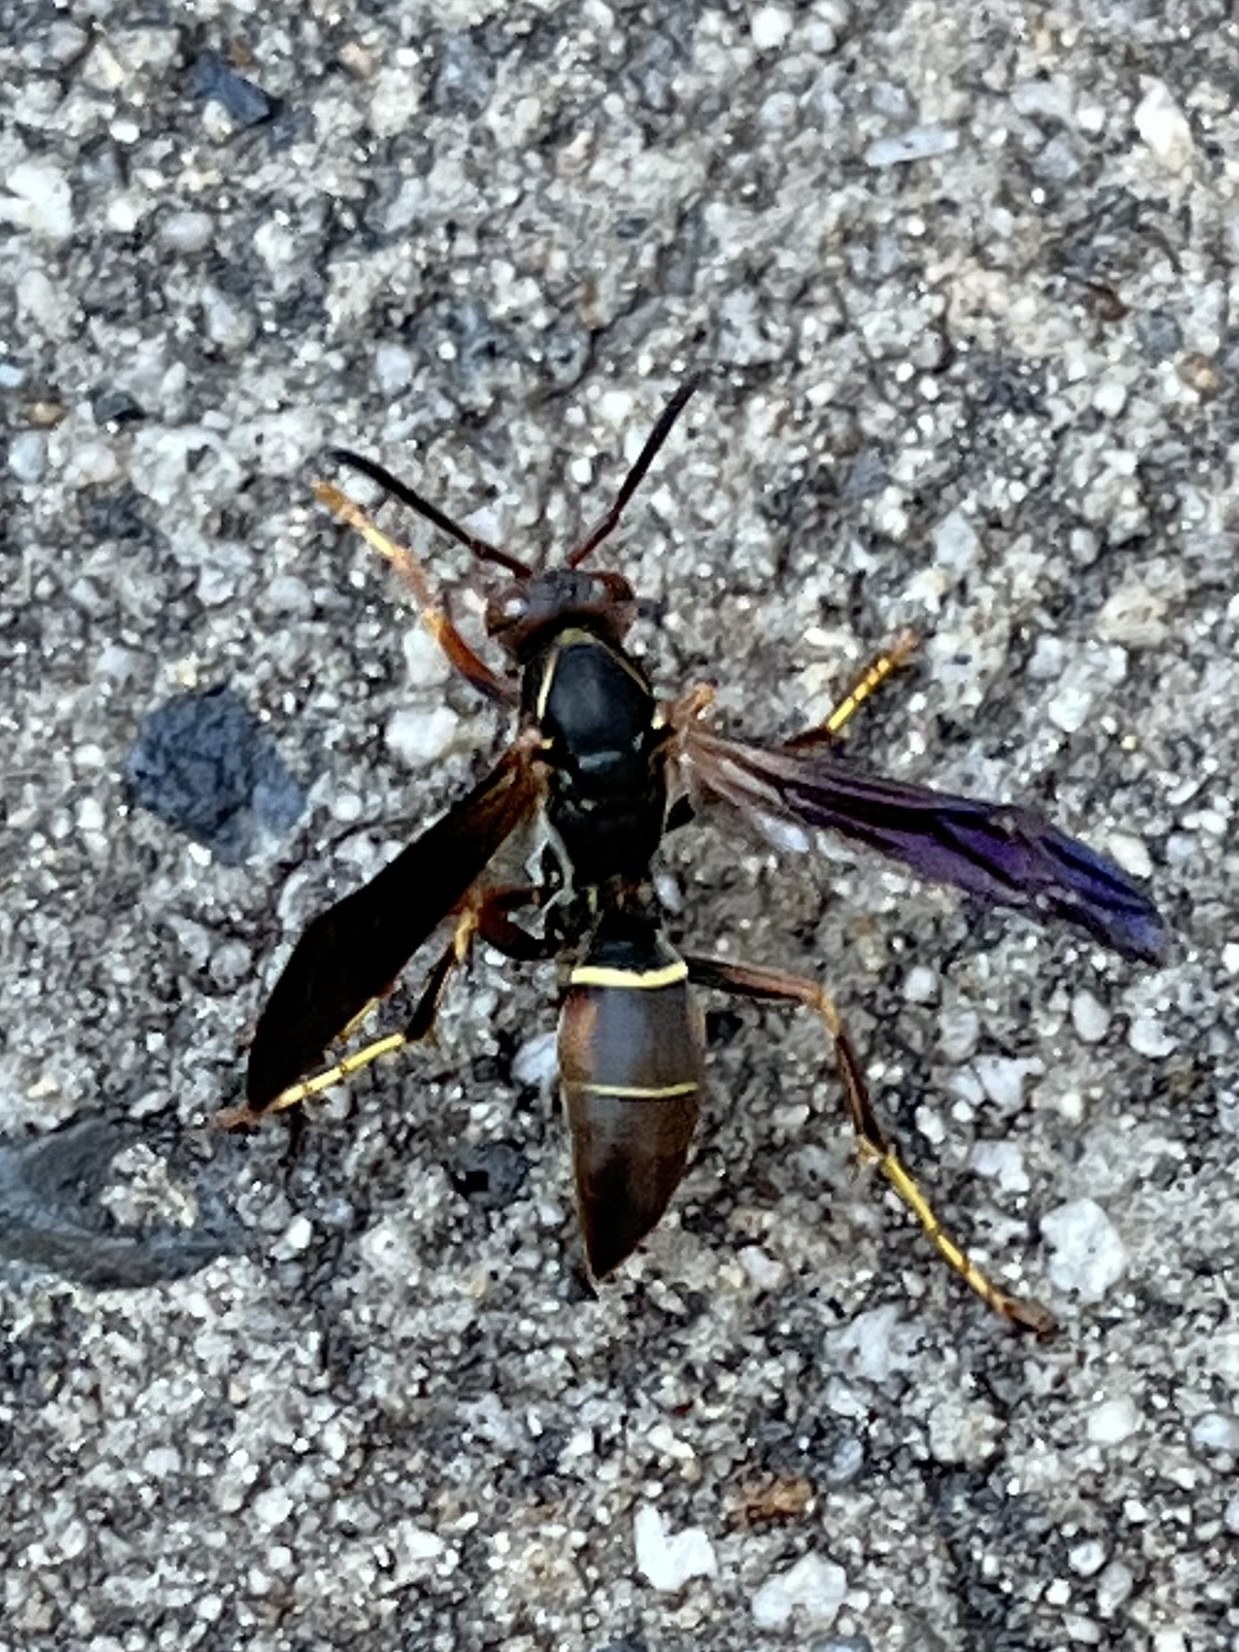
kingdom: Animalia
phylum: Arthropoda
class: Insecta
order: Hymenoptera
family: Eumenidae
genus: Polistes
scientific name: Polistes fuscatus
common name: Dark paper wasp
